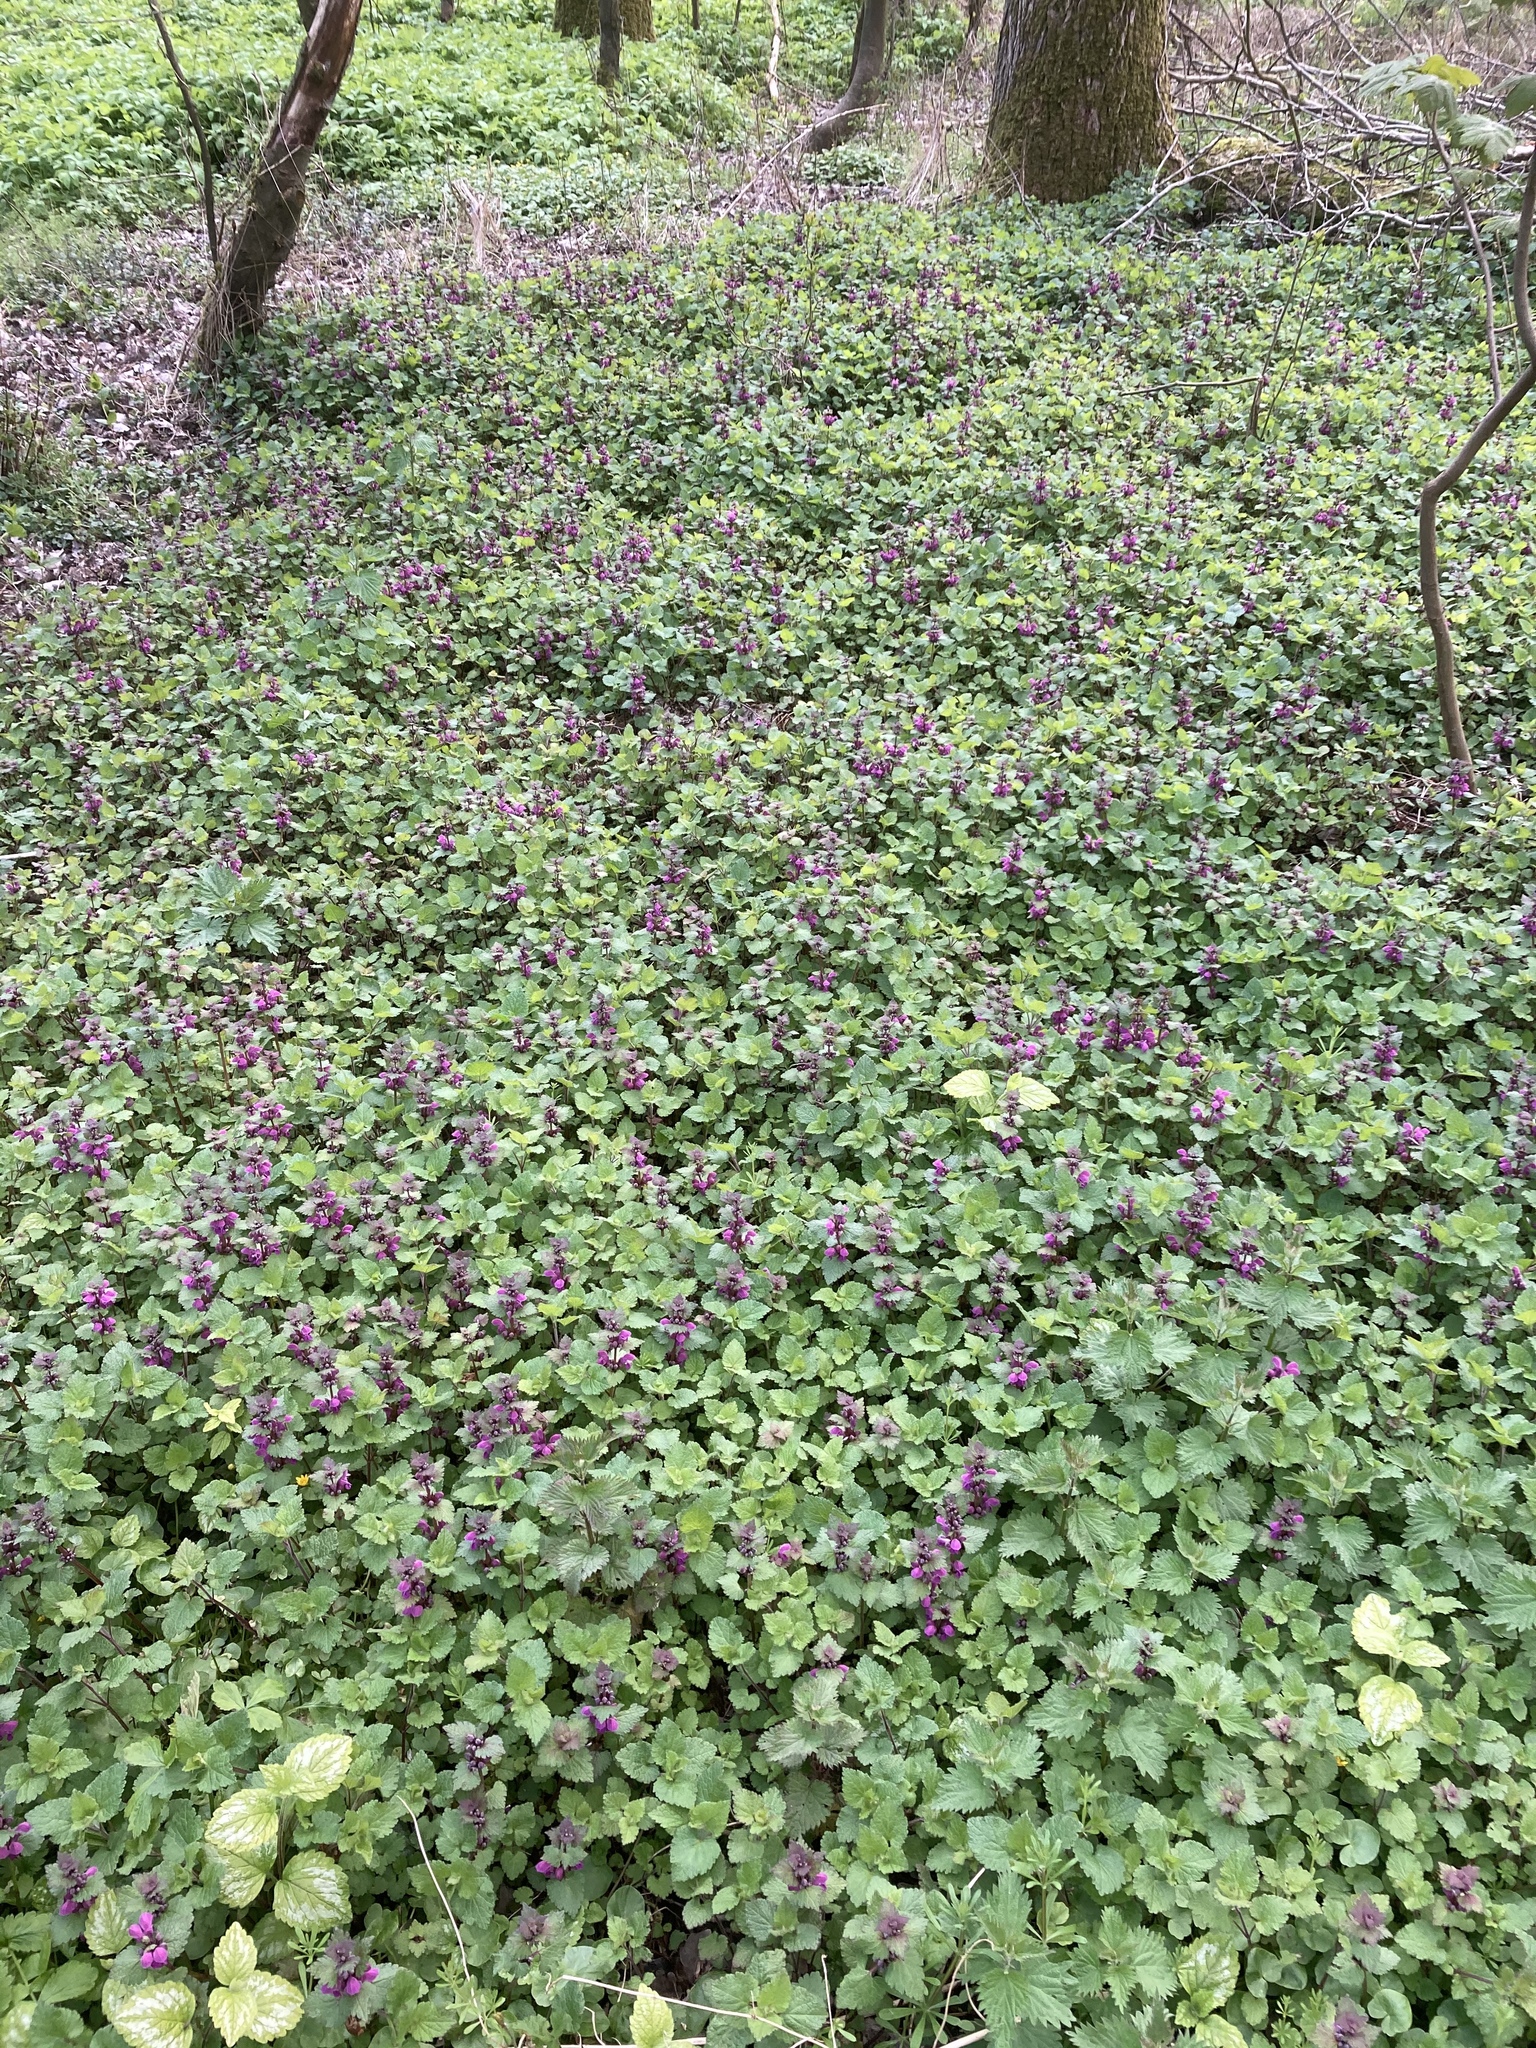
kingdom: Plantae
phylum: Tracheophyta
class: Magnoliopsida
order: Lamiales
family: Lamiaceae
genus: Lamium
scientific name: Lamium maculatum
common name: Spotted dead-nettle
